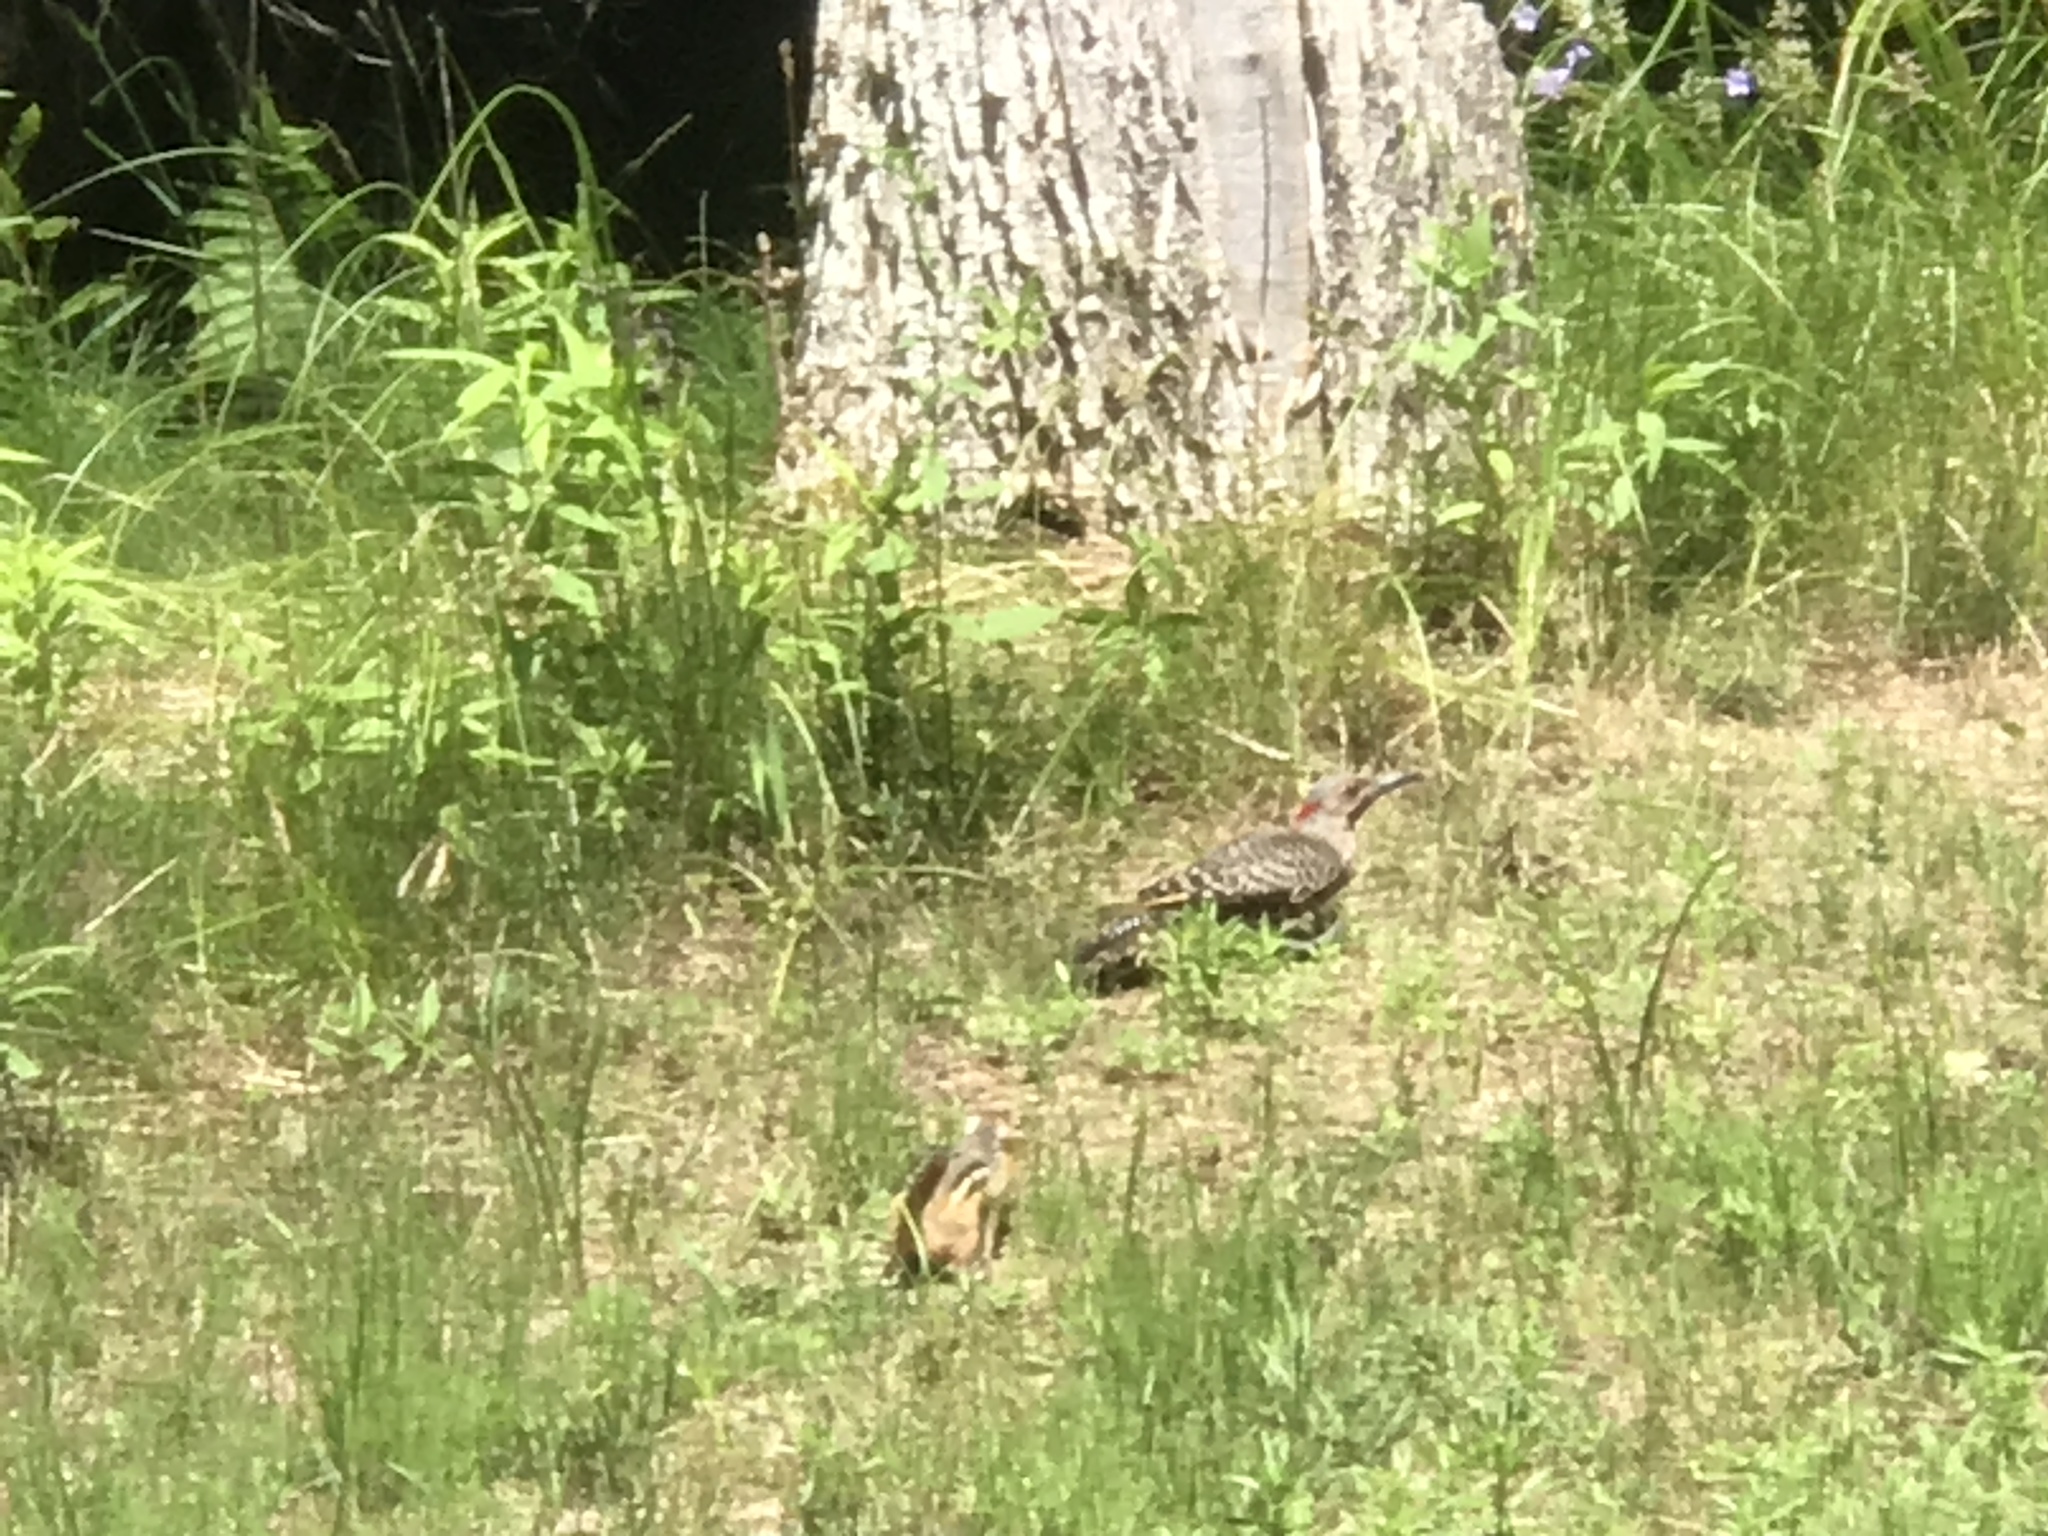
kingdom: Animalia
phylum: Chordata
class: Mammalia
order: Rodentia
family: Sciuridae
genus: Tamias
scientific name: Tamias striatus
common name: Eastern chipmunk
